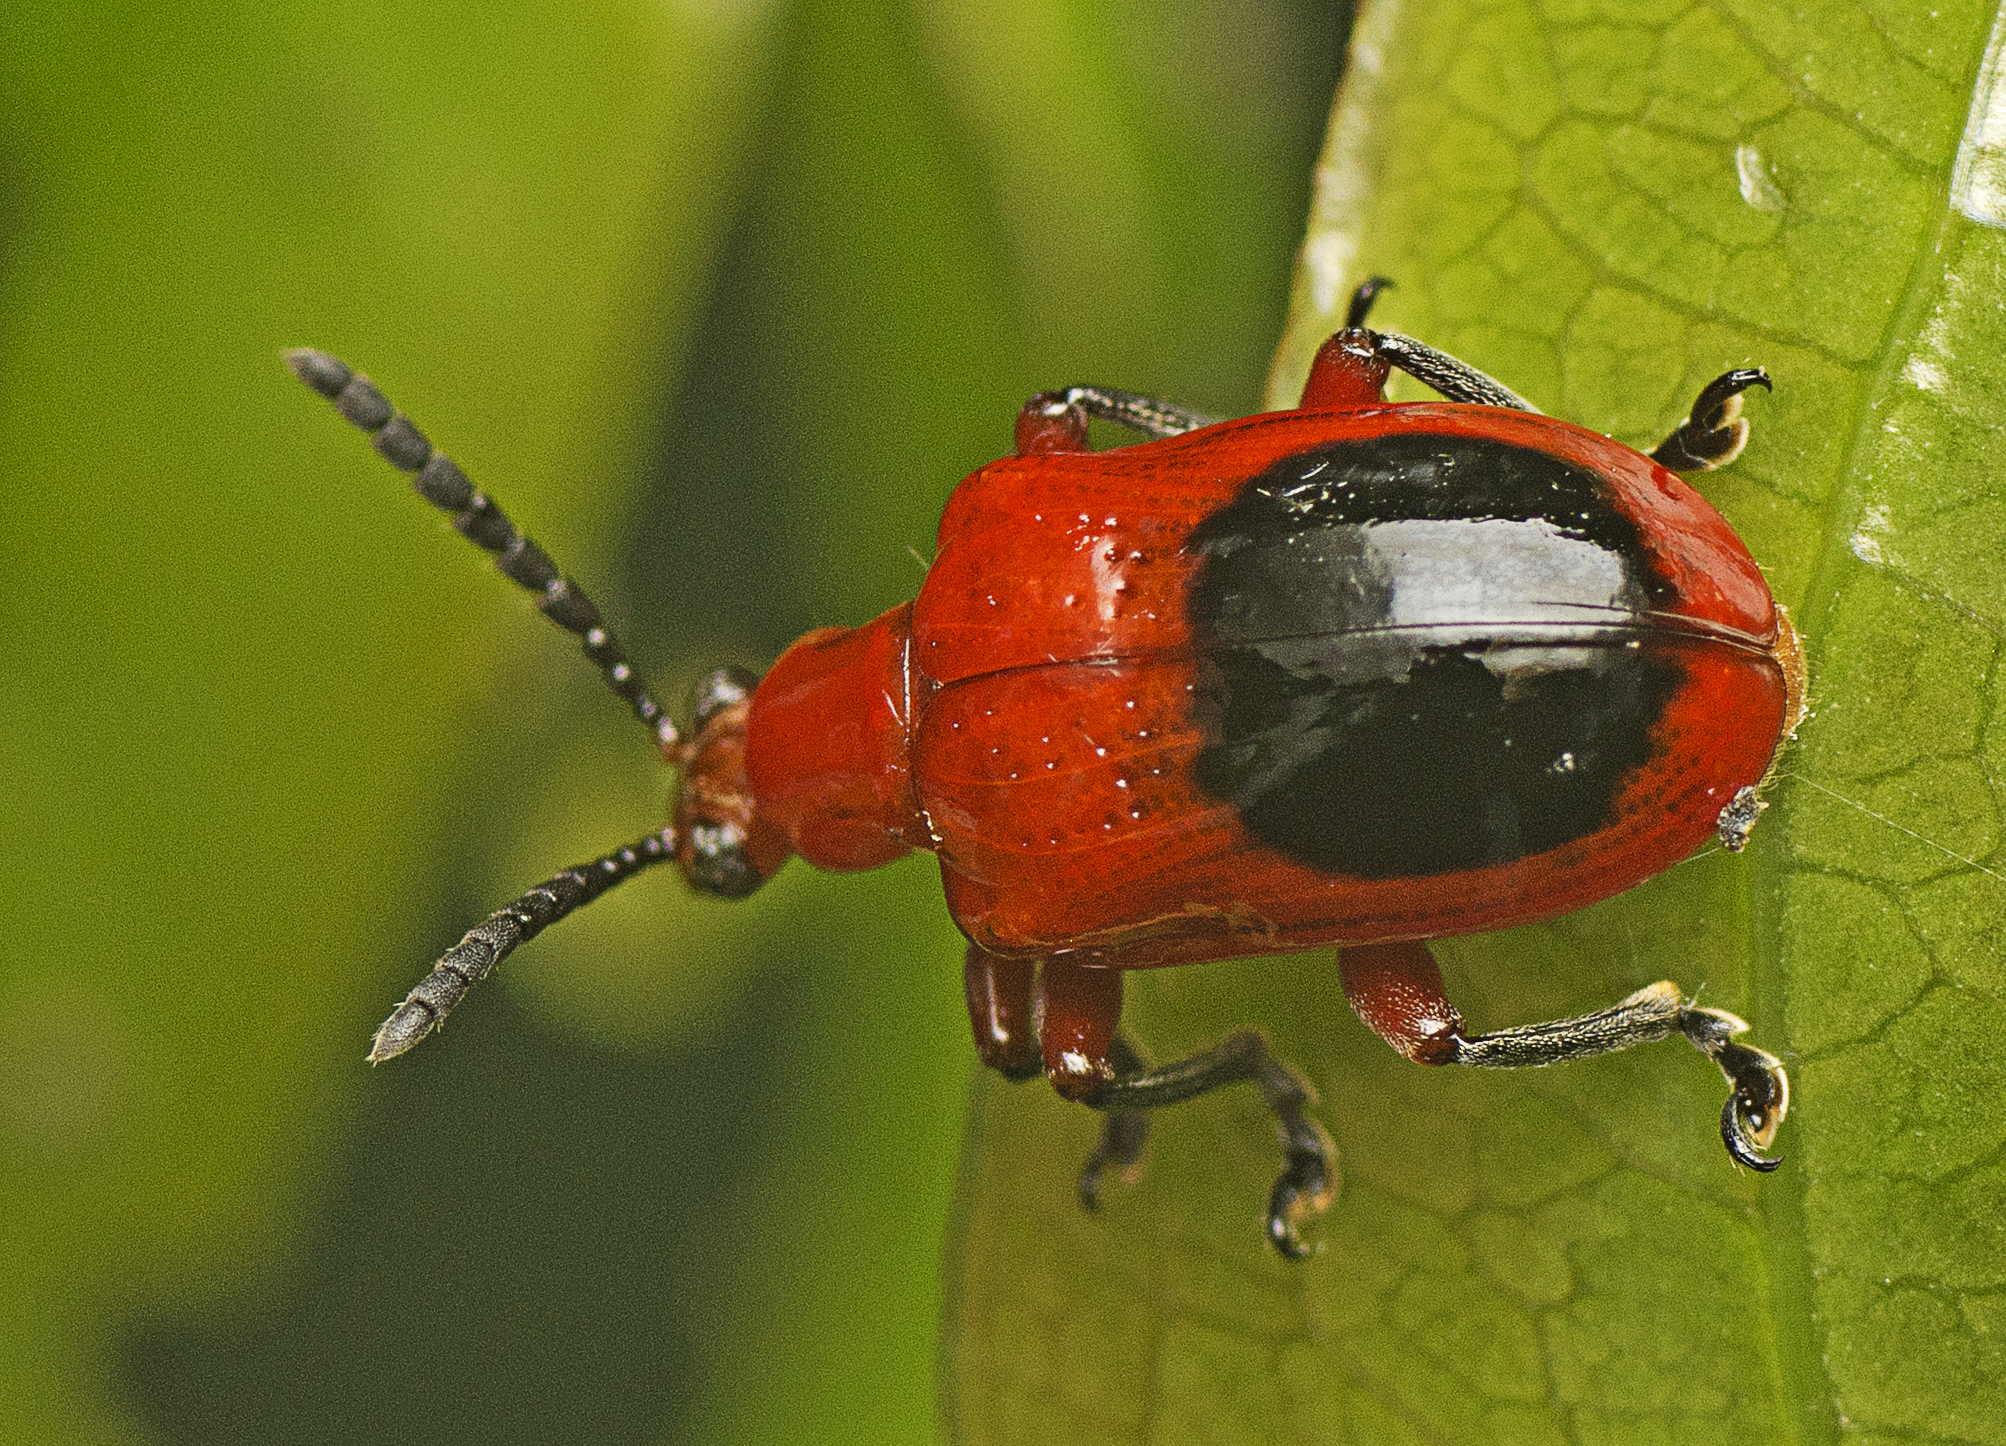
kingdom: Animalia
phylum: Arthropoda
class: Insecta
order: Coleoptera
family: Chrysomelidae
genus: Lilioceris
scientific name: Lilioceris
